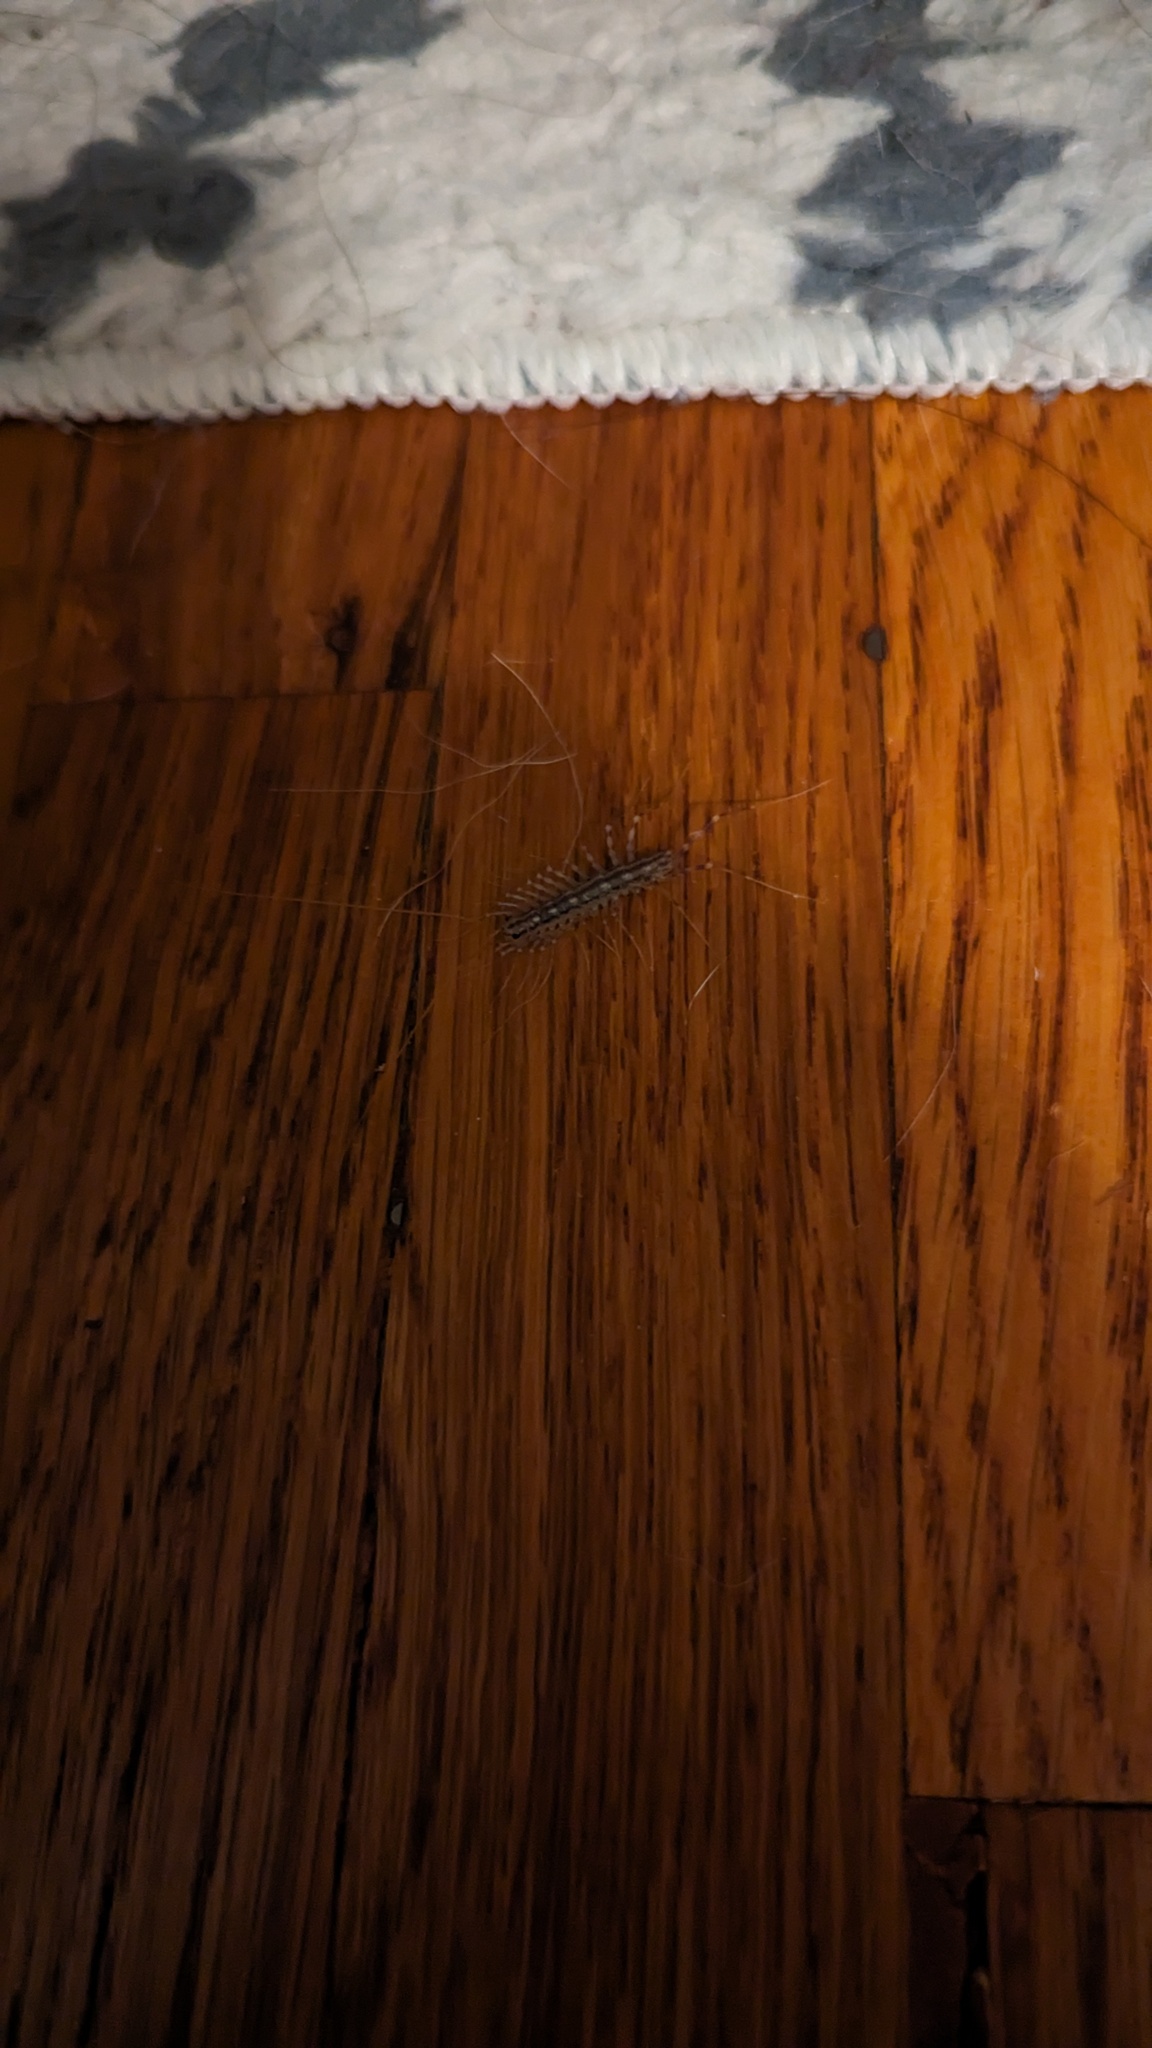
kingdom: Animalia
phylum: Arthropoda
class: Chilopoda
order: Scutigeromorpha
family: Scutigeridae
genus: Scutigera
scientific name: Scutigera coleoptrata
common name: House centipede
